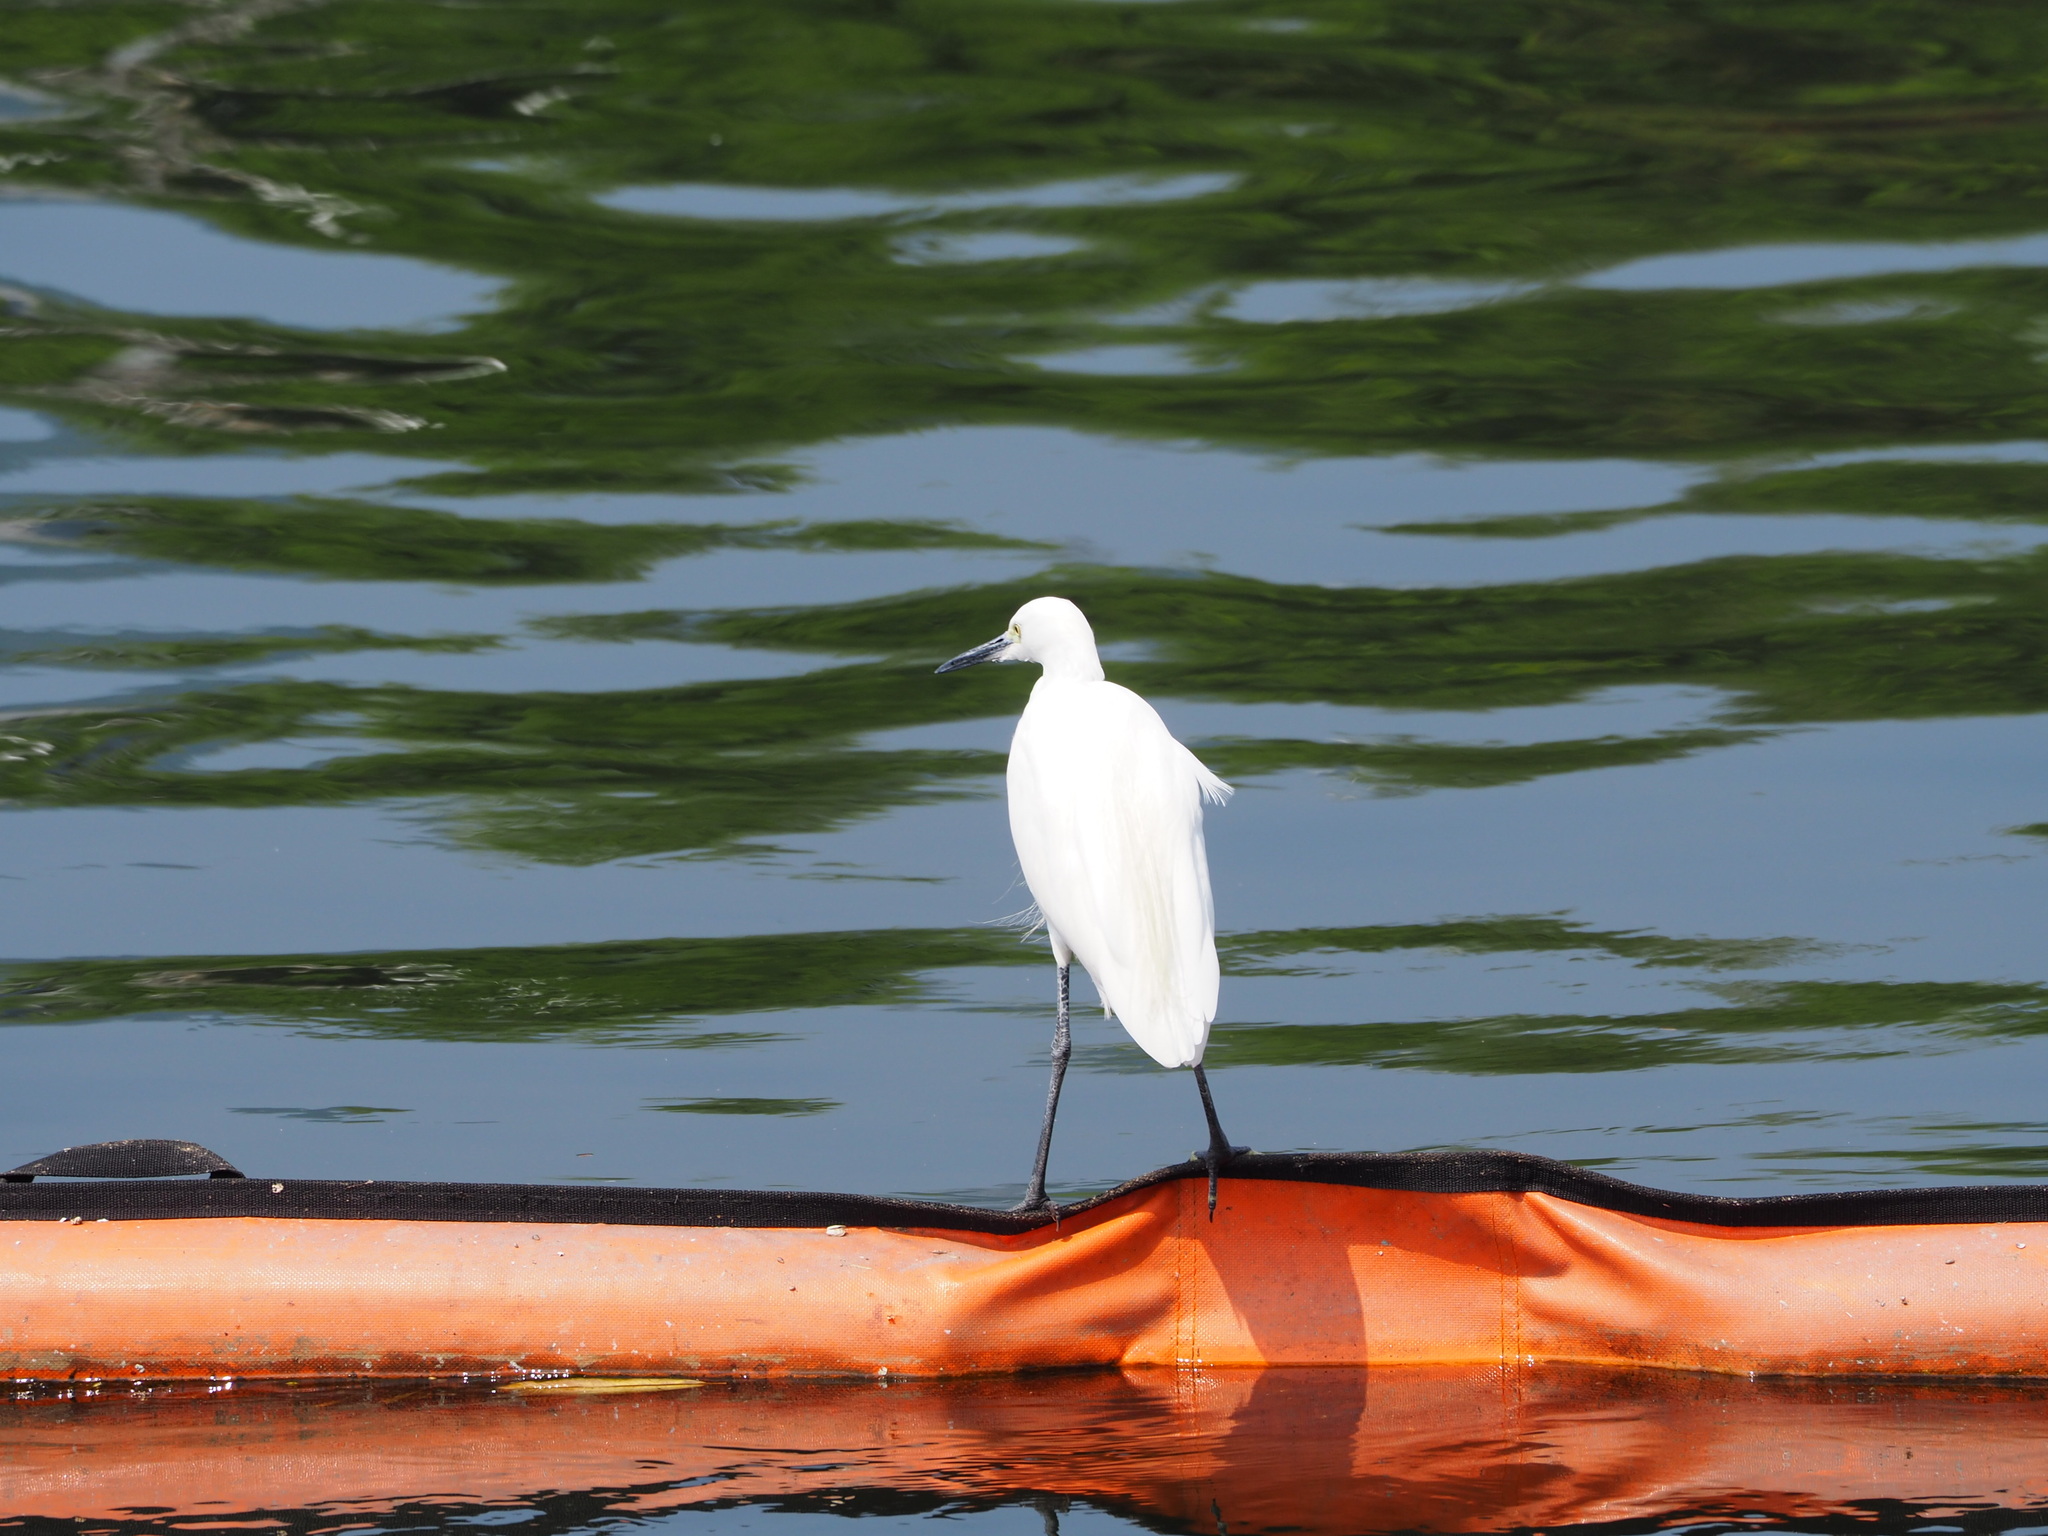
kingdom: Animalia
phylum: Chordata
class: Aves
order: Pelecaniformes
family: Ardeidae
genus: Egretta
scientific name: Egretta garzetta
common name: Little egret
